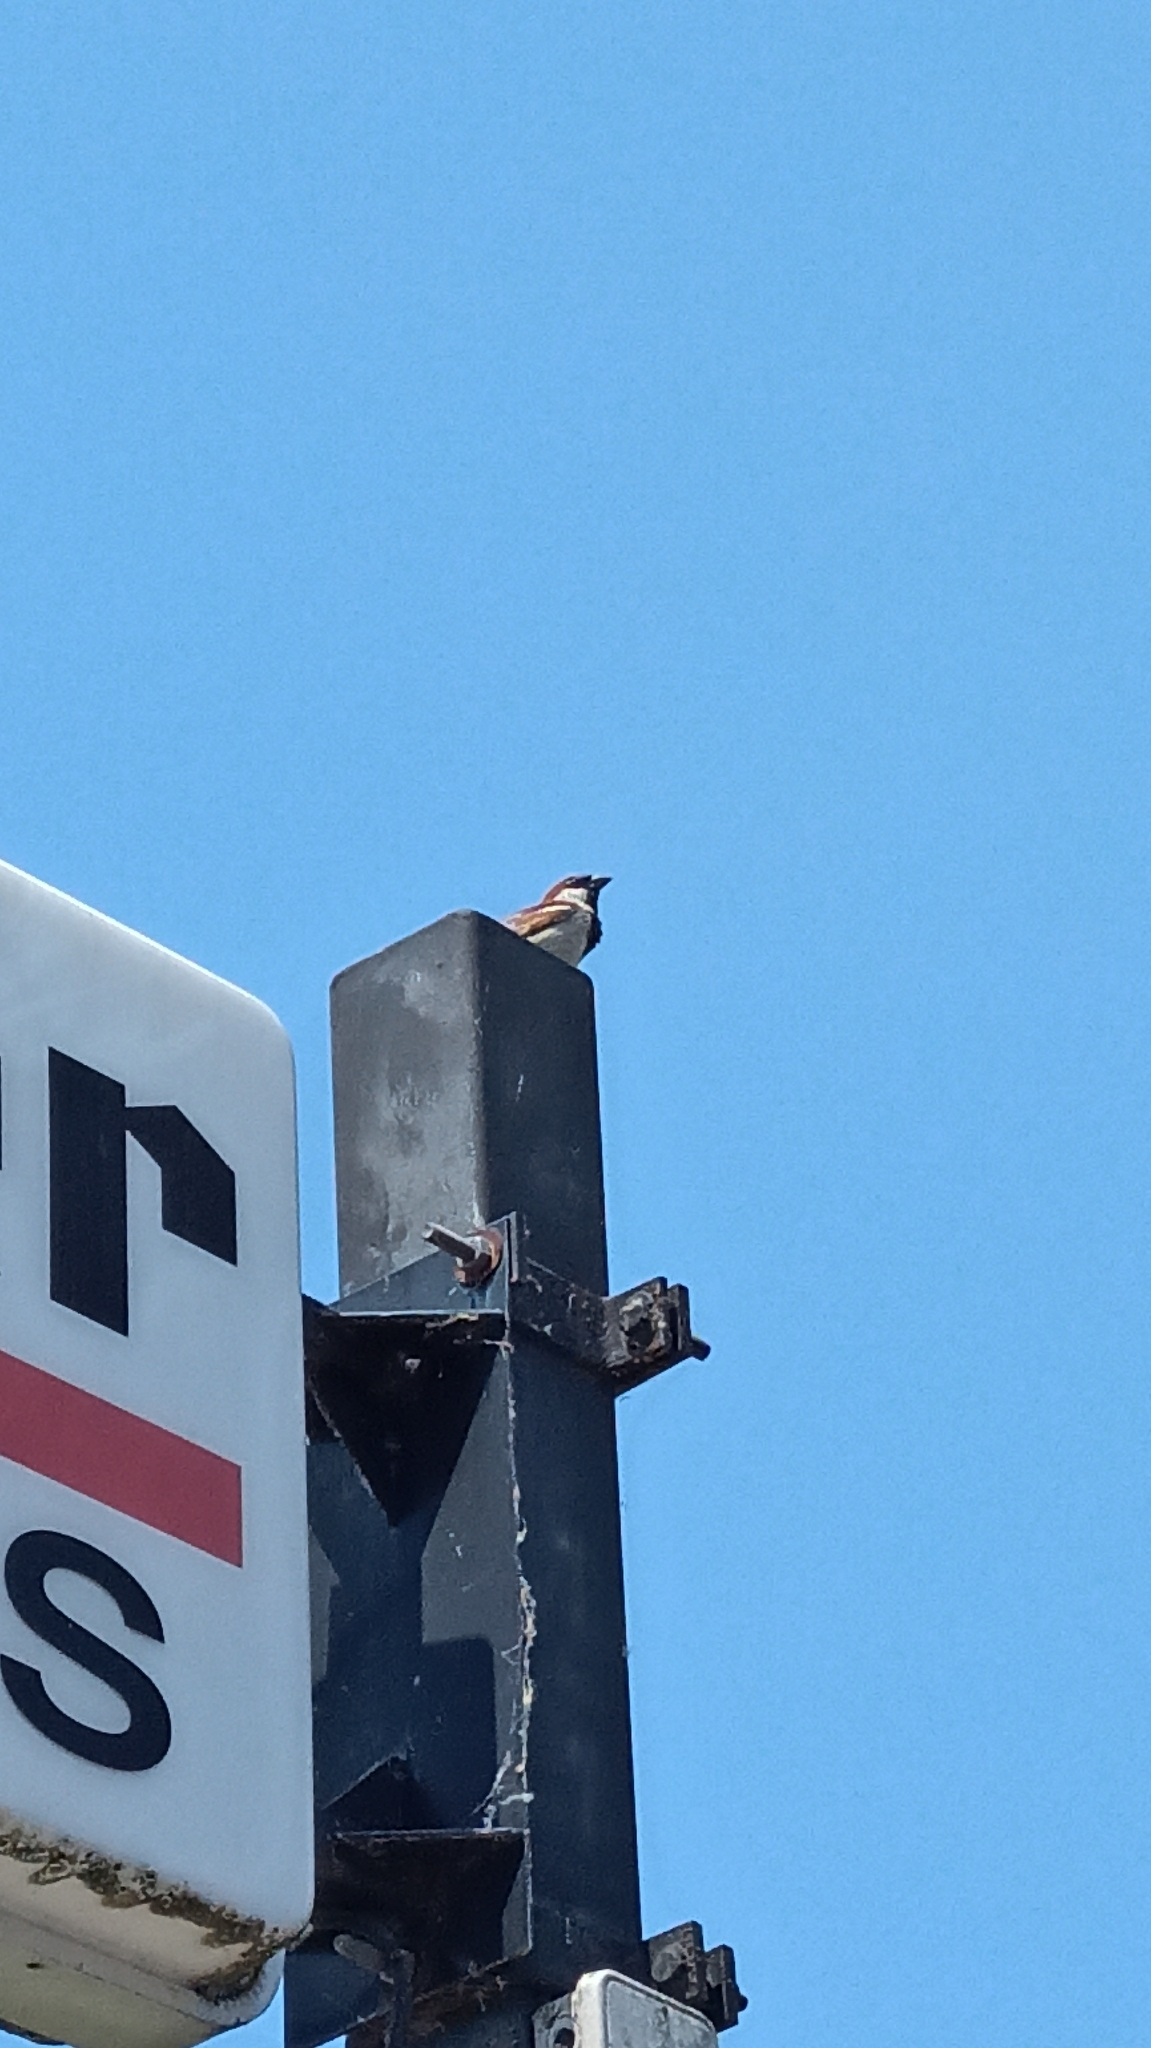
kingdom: Animalia
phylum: Chordata
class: Aves
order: Passeriformes
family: Passeridae
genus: Passer
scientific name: Passer domesticus
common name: House sparrow
